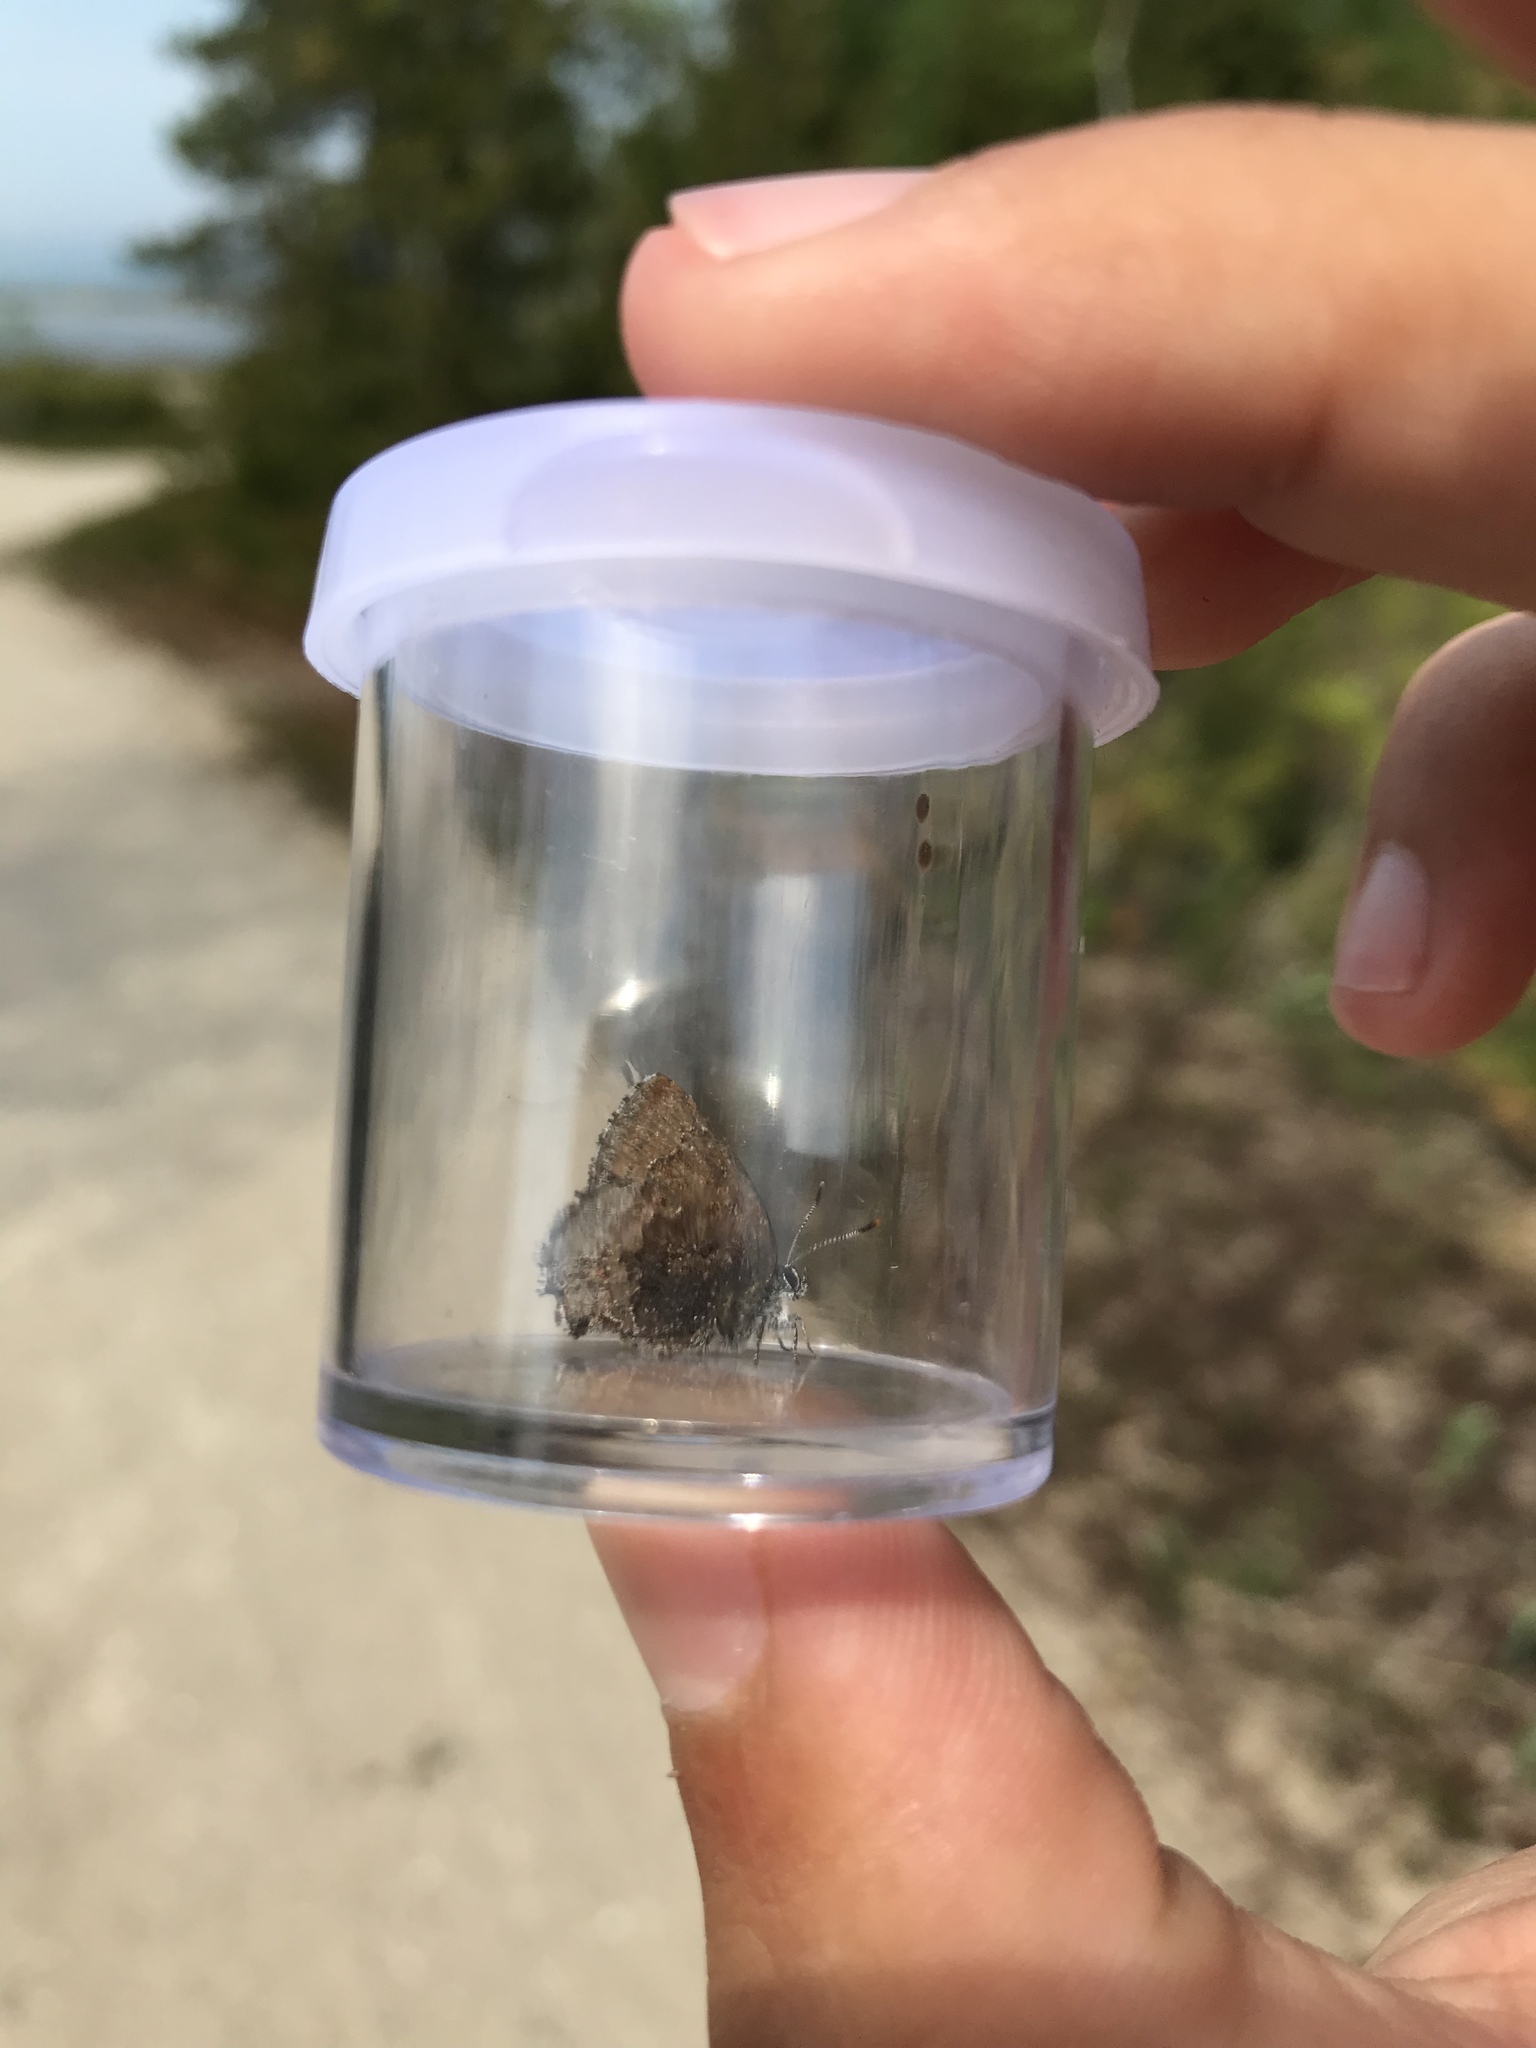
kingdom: Animalia
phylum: Arthropoda
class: Insecta
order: Lepidoptera
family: Lycaenidae
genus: Callophrys
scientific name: Callophrys polios
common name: Hoary elfin
